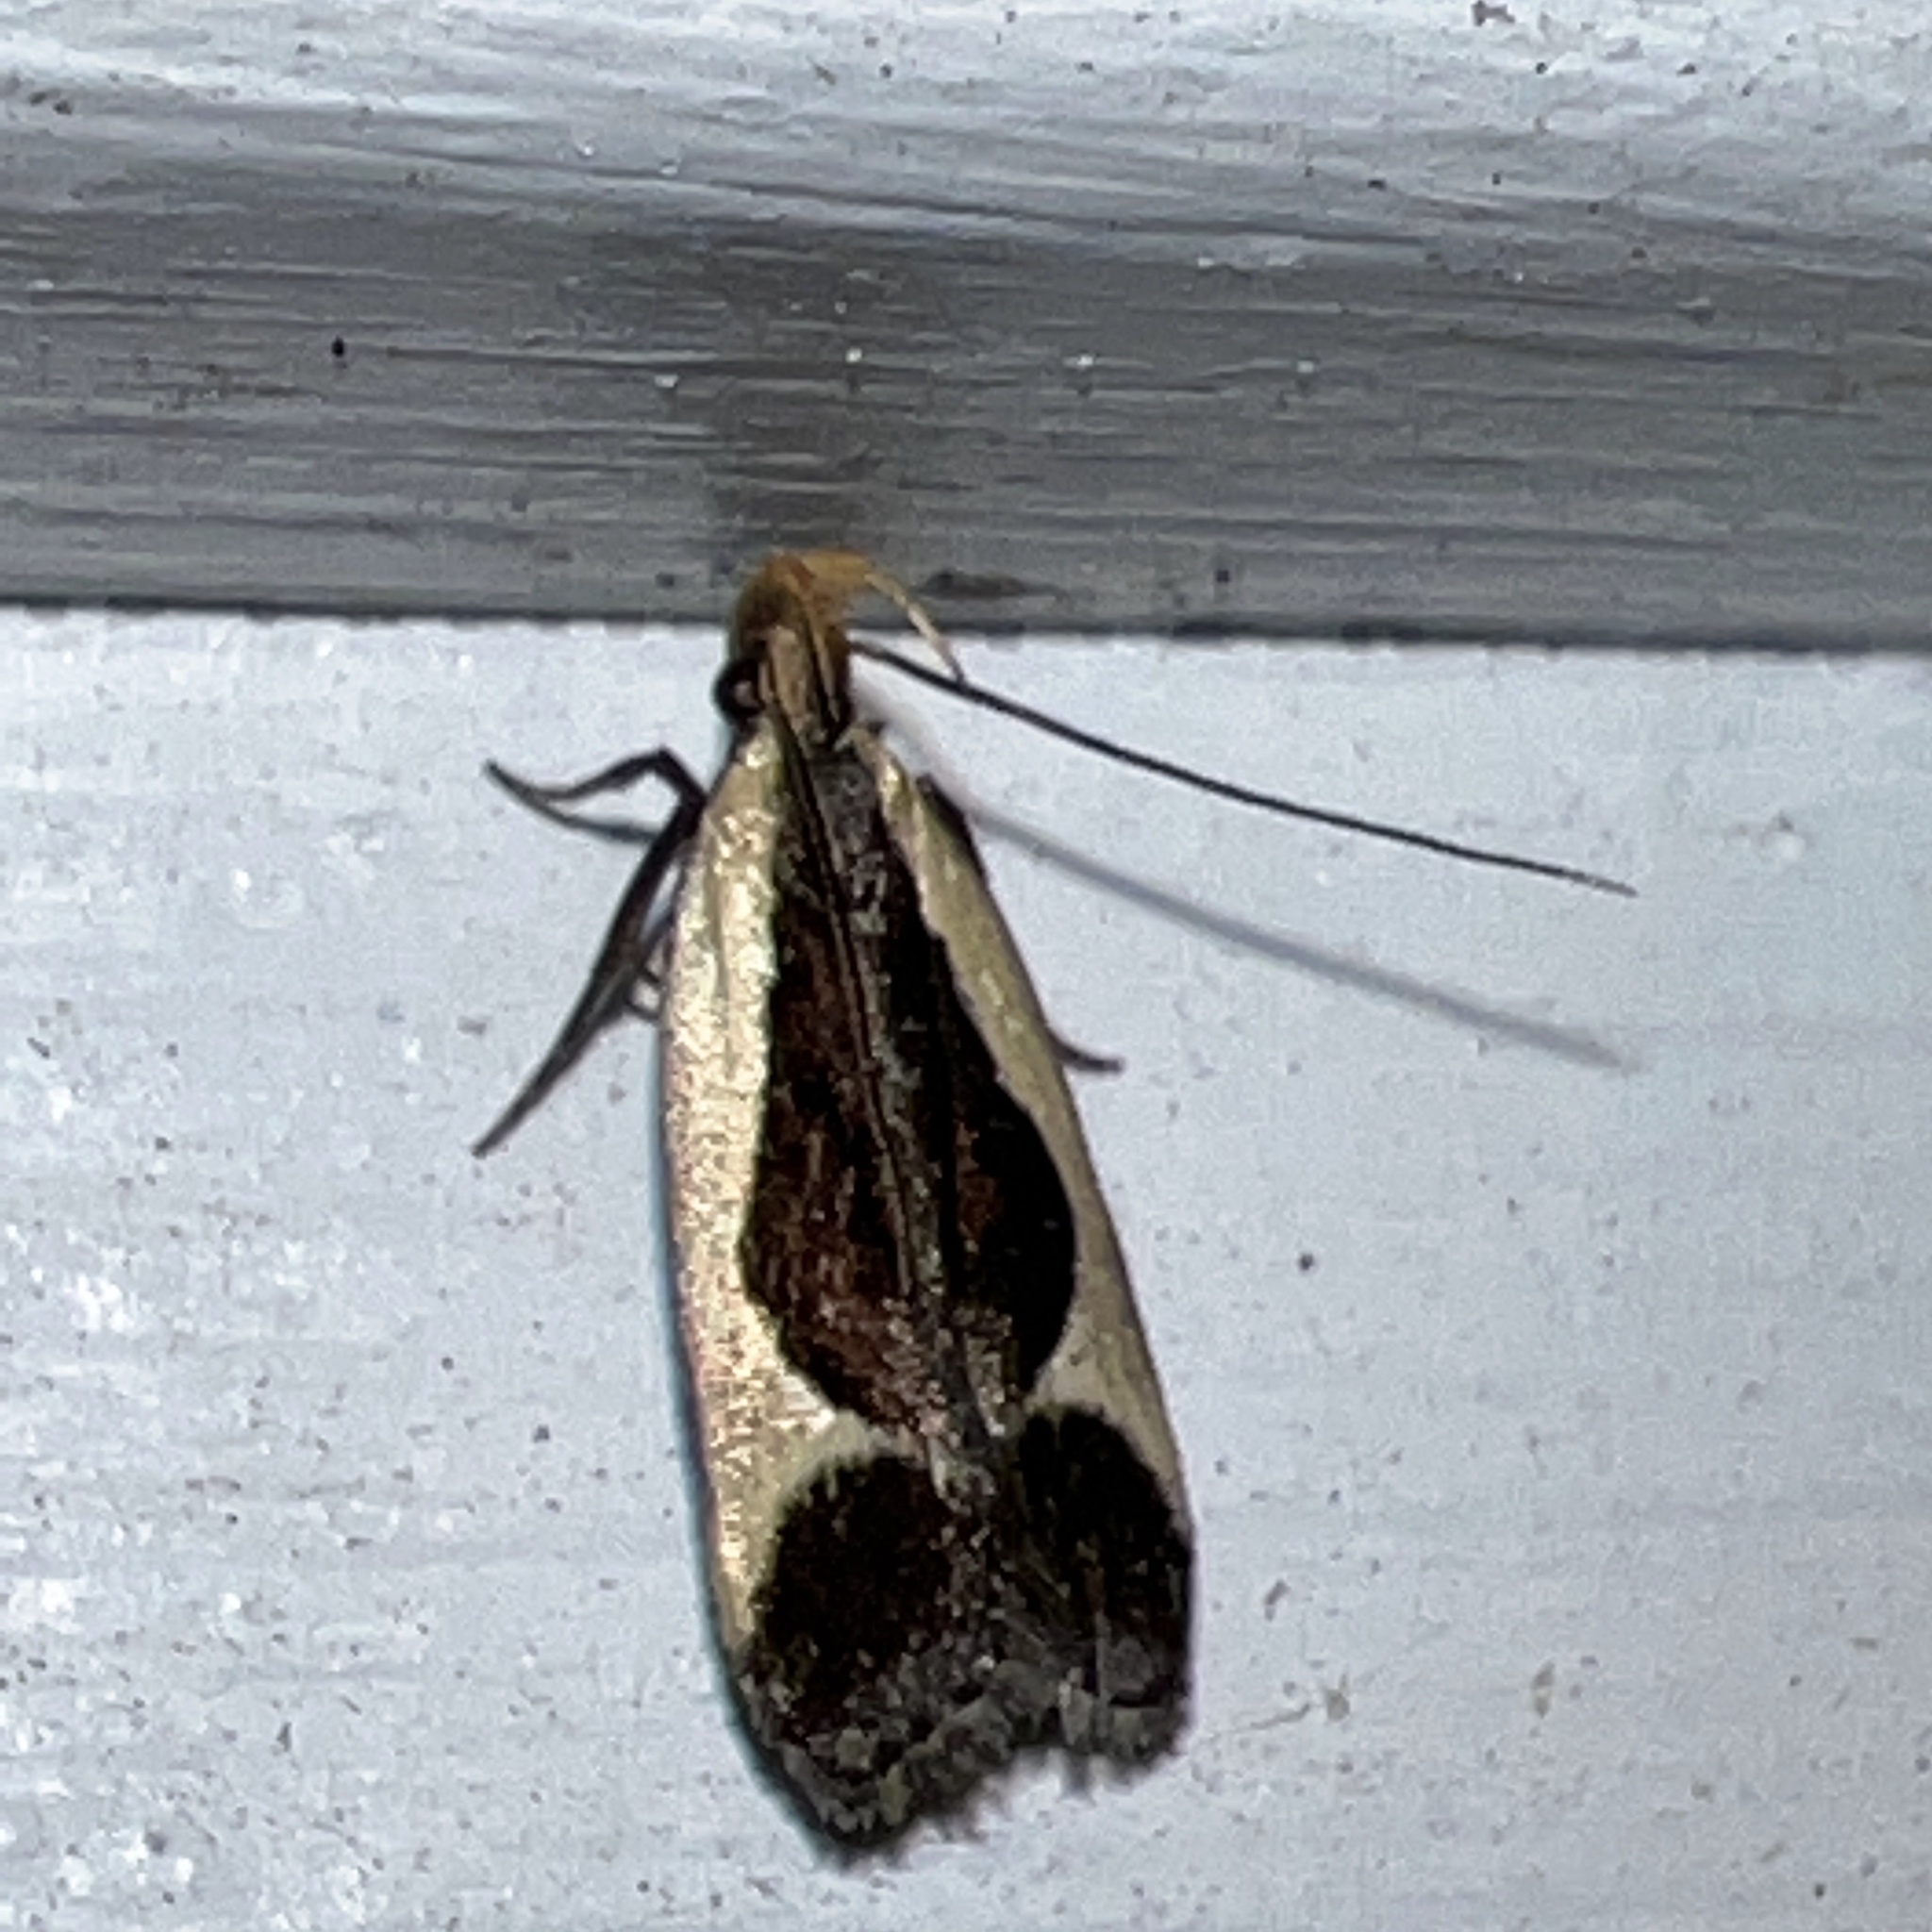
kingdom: Animalia
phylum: Arthropoda
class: Insecta
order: Lepidoptera
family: Gelechiidae
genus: Dichomeris
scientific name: Dichomeris flavocostella
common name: Cream-edged dichomeris moth
